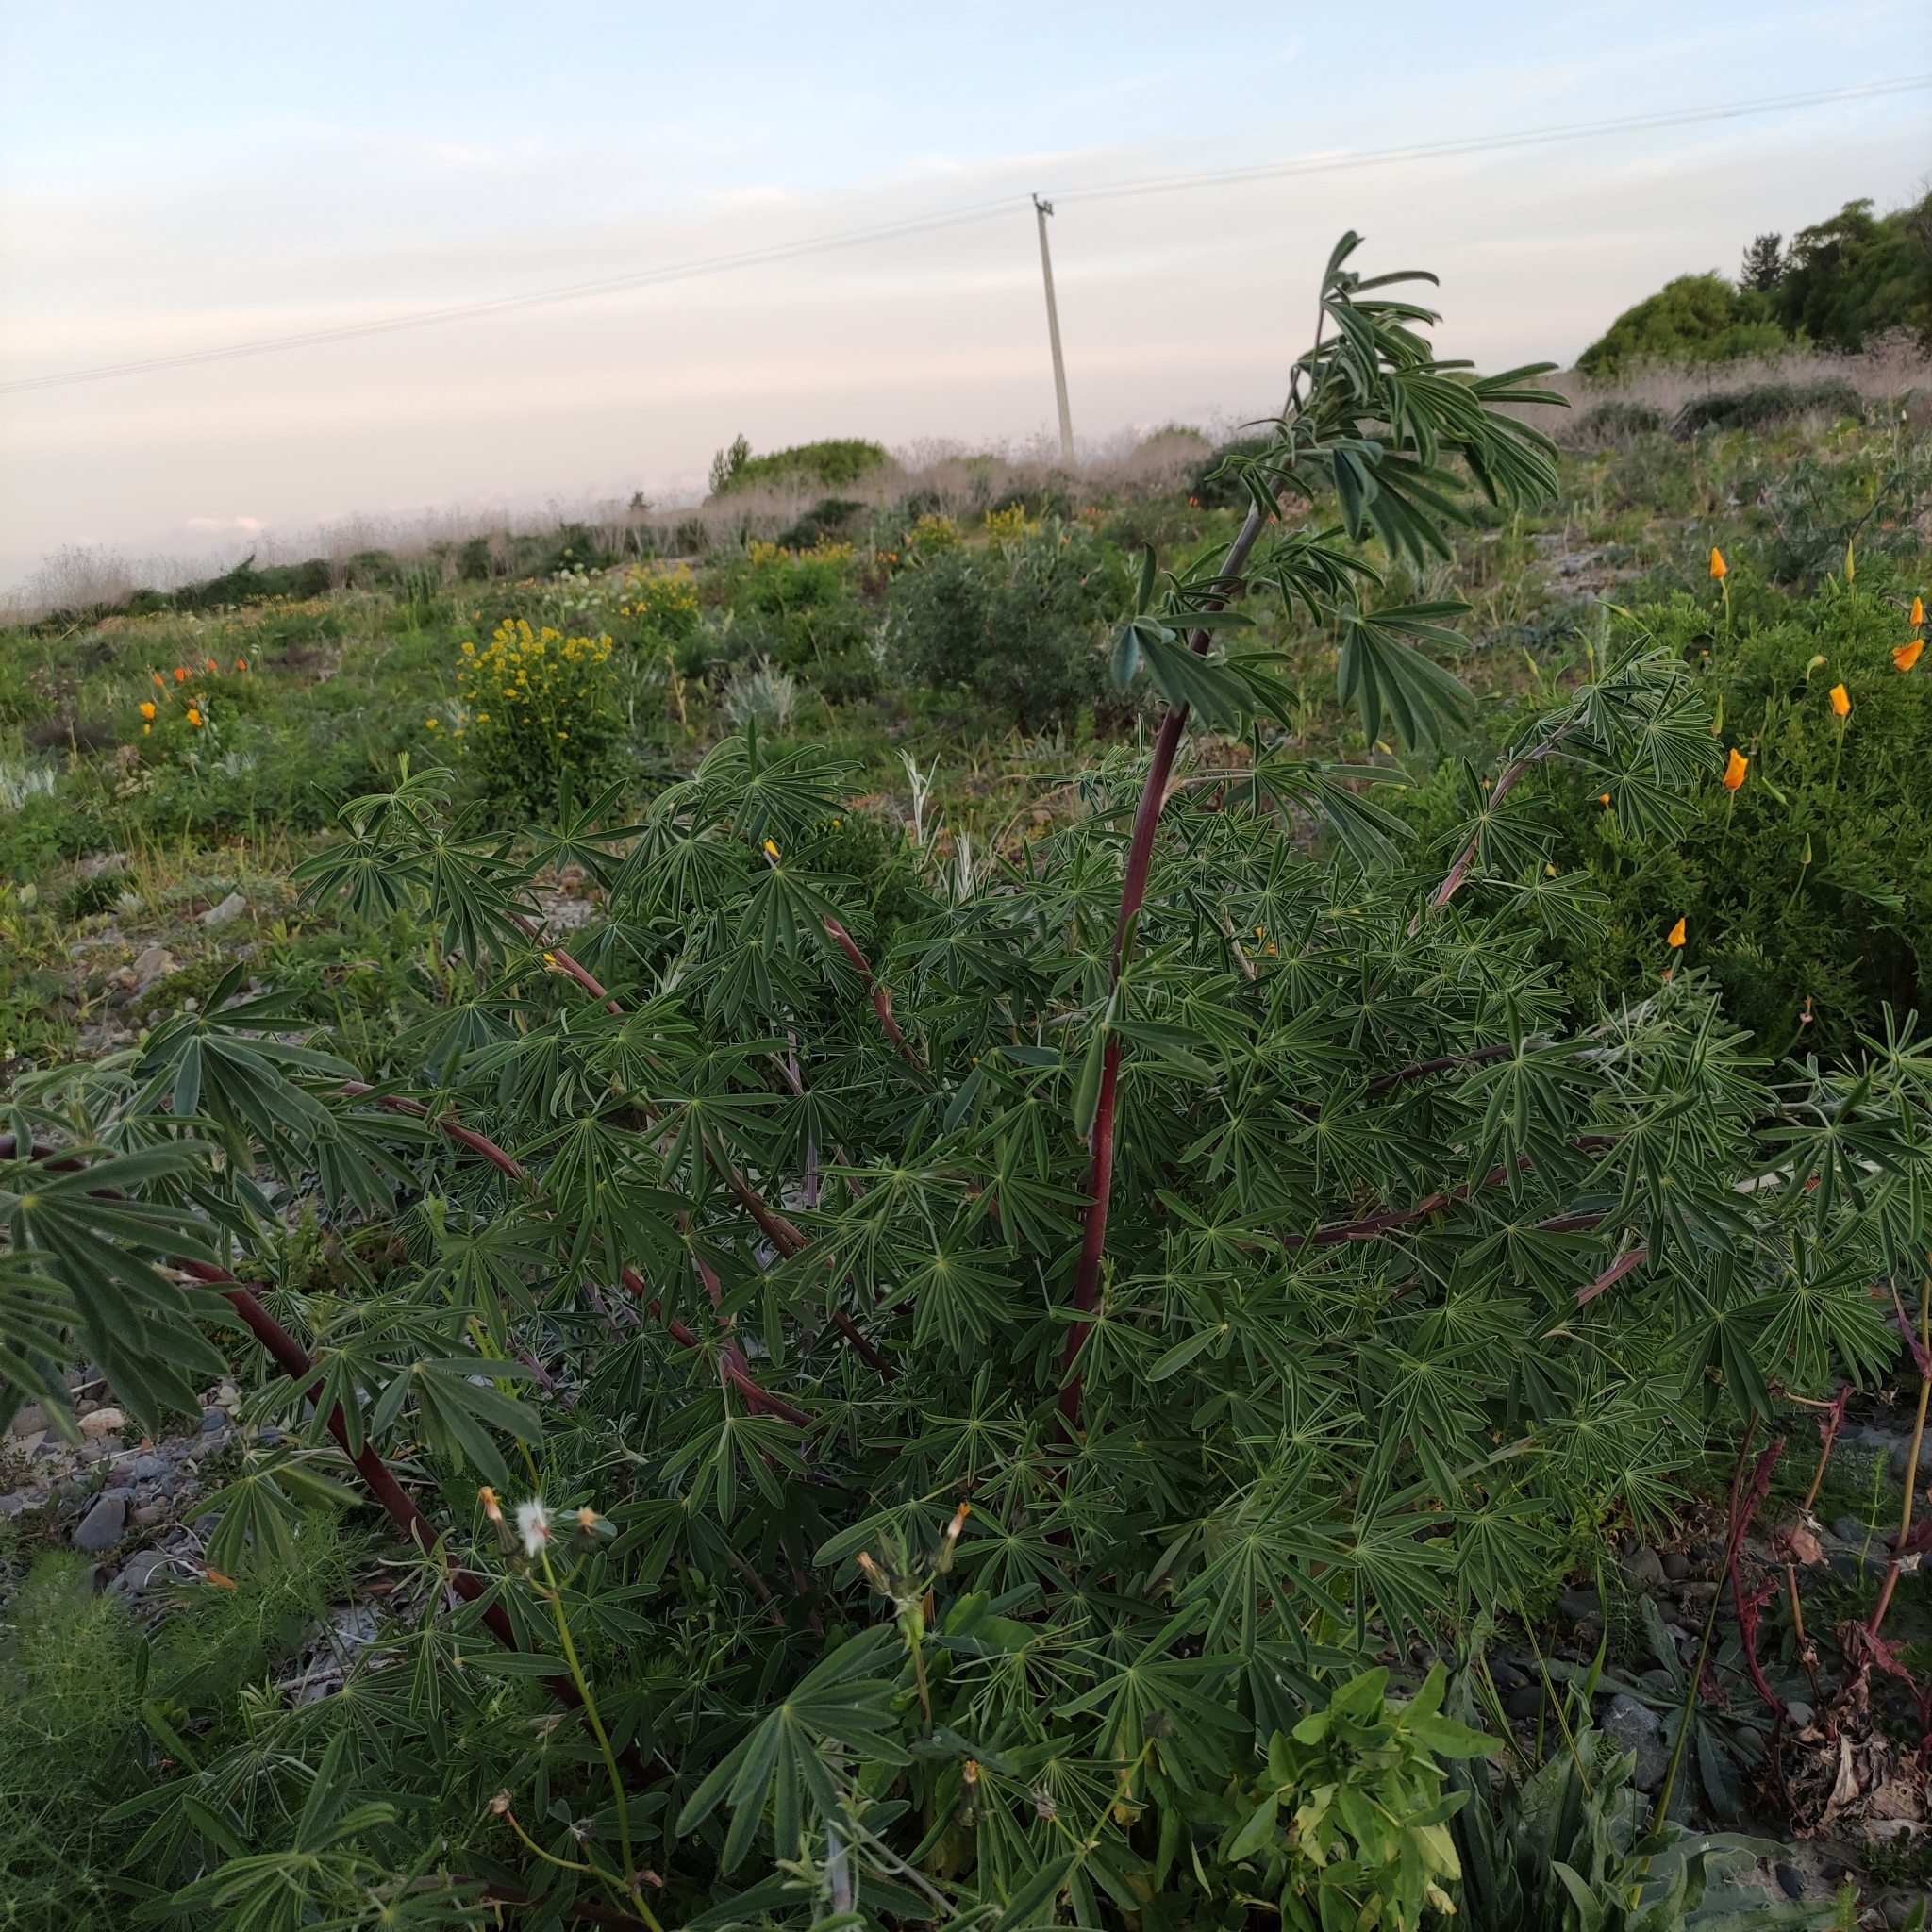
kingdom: Plantae
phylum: Tracheophyta
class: Magnoliopsida
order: Fabales
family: Fabaceae
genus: Lupinus
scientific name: Lupinus arboreus
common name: Yellow bush lupine
